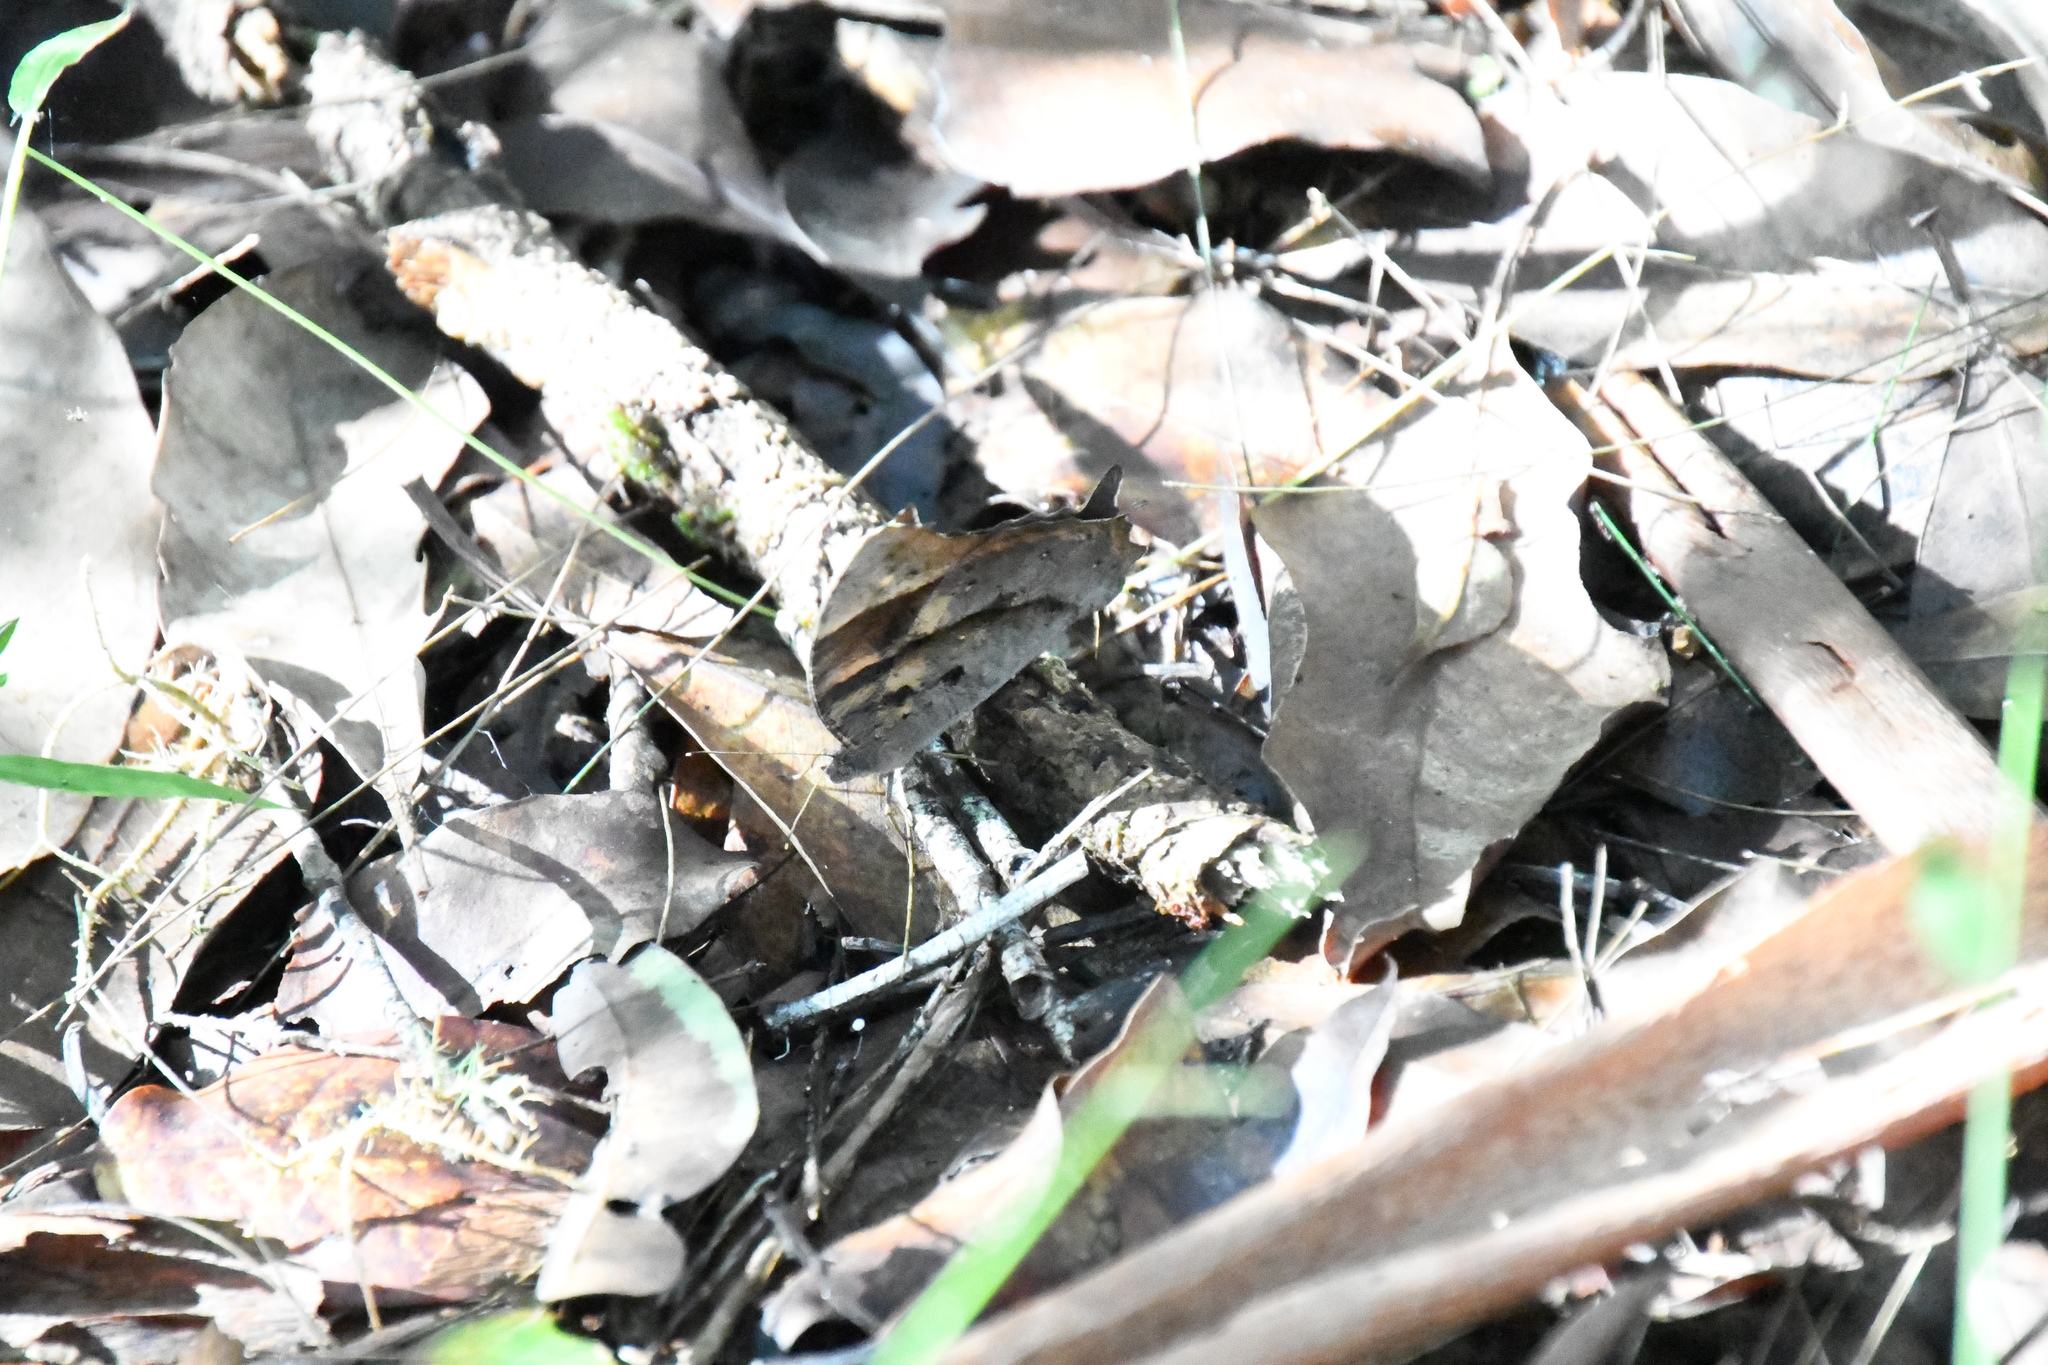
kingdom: Animalia
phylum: Arthropoda
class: Insecta
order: Lepidoptera
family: Nymphalidae
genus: Melanitis
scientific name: Melanitis leda
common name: Twilight brown
